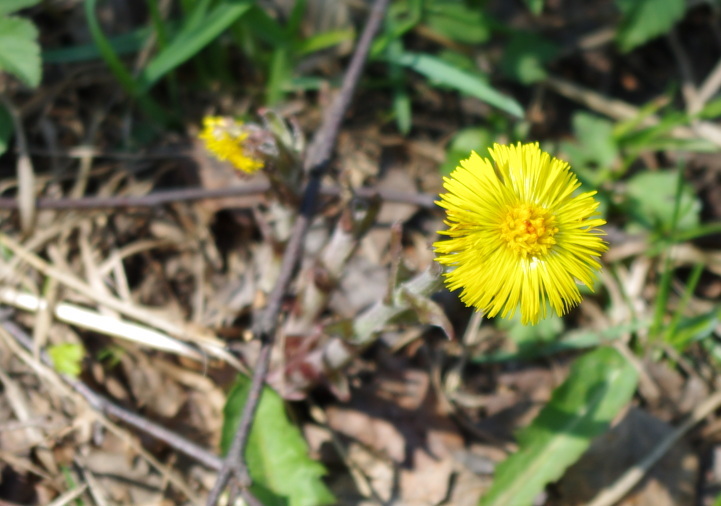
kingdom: Plantae
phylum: Tracheophyta
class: Magnoliopsida
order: Asterales
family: Asteraceae
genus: Tussilago
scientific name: Tussilago farfara
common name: Coltsfoot
